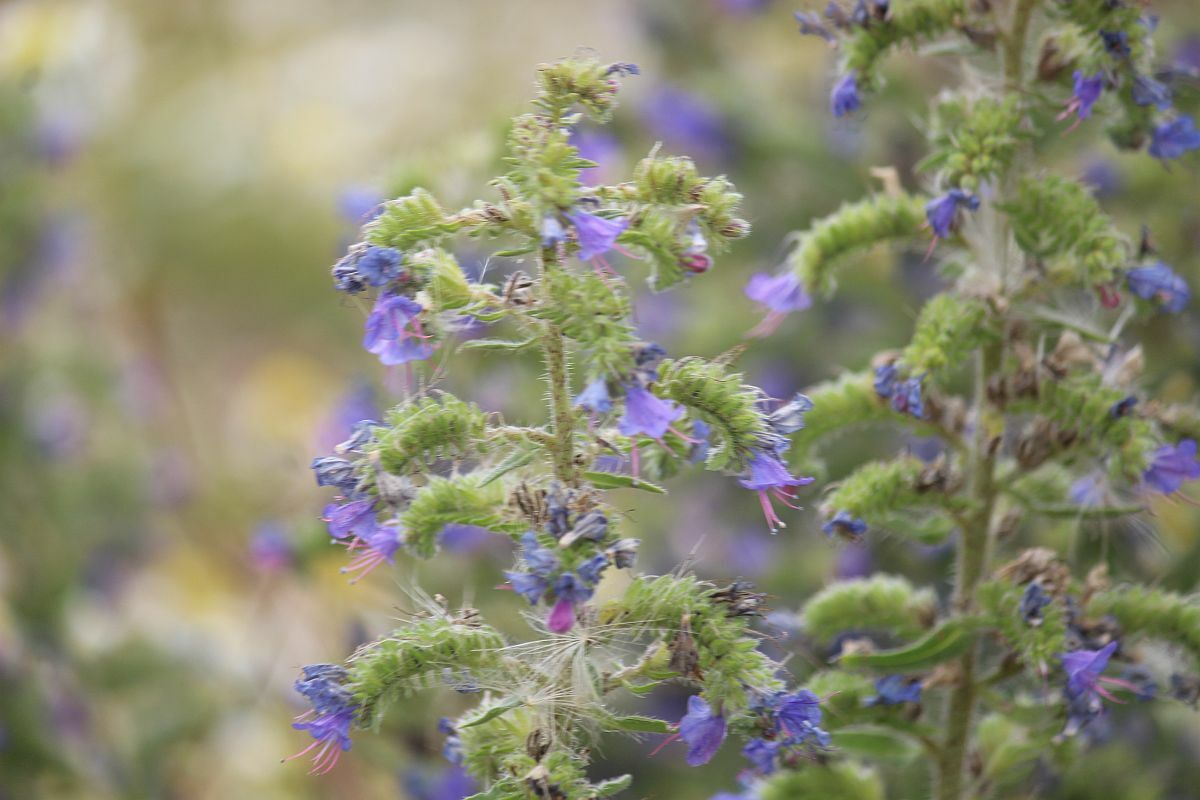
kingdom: Plantae
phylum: Tracheophyta
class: Magnoliopsida
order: Boraginales
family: Boraginaceae
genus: Echium
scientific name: Echium vulgare
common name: Common viper's bugloss
